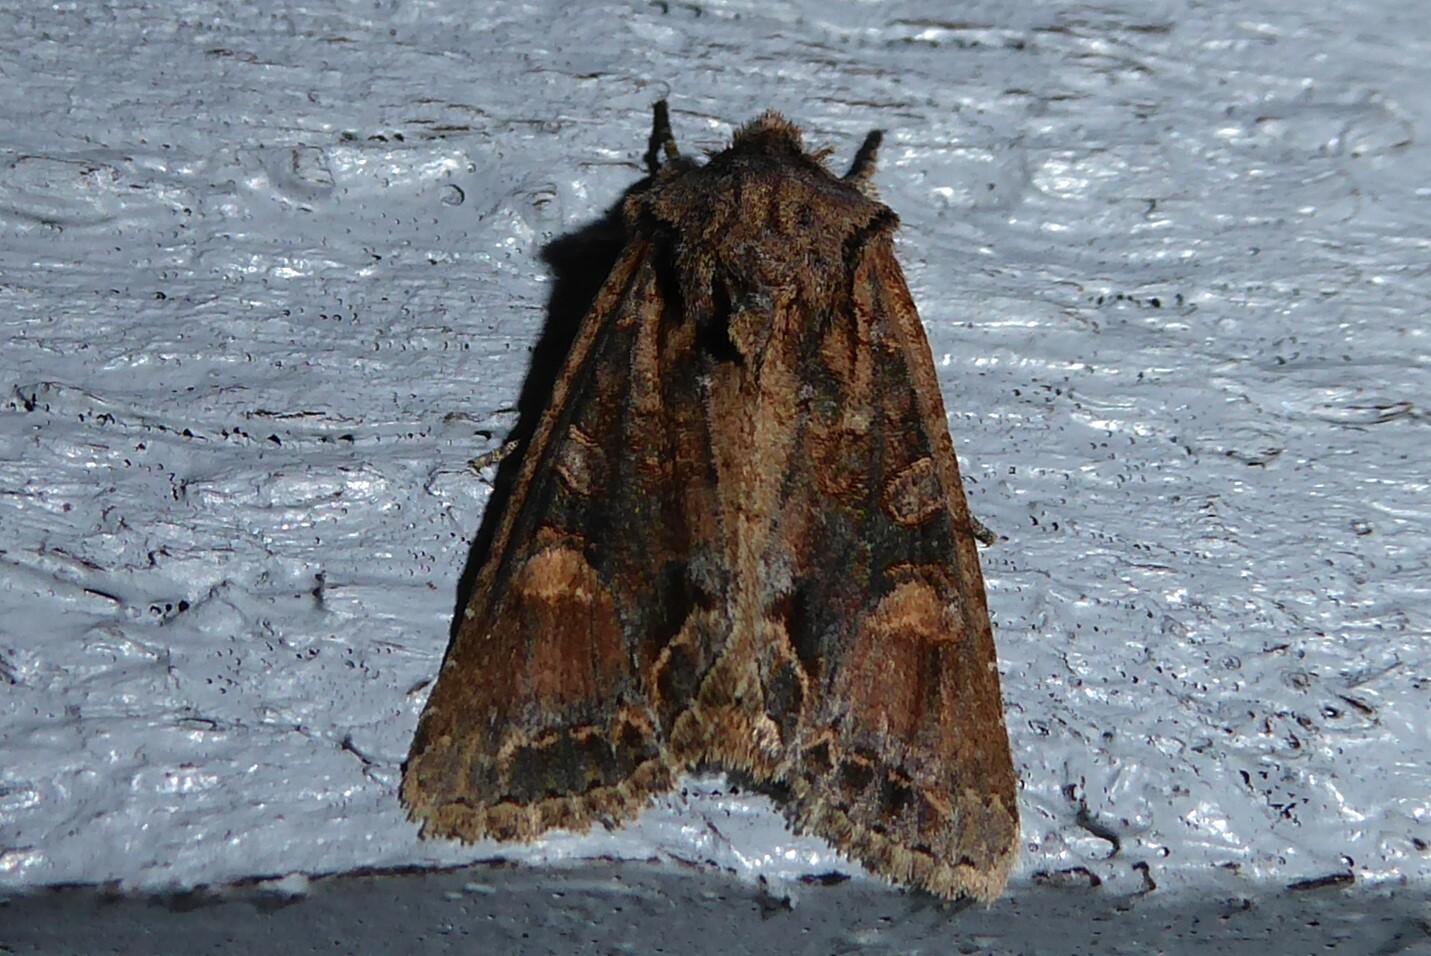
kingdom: Animalia
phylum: Arthropoda
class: Insecta
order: Lepidoptera
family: Noctuidae
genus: Ichneutica
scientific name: Ichneutica skelloni
